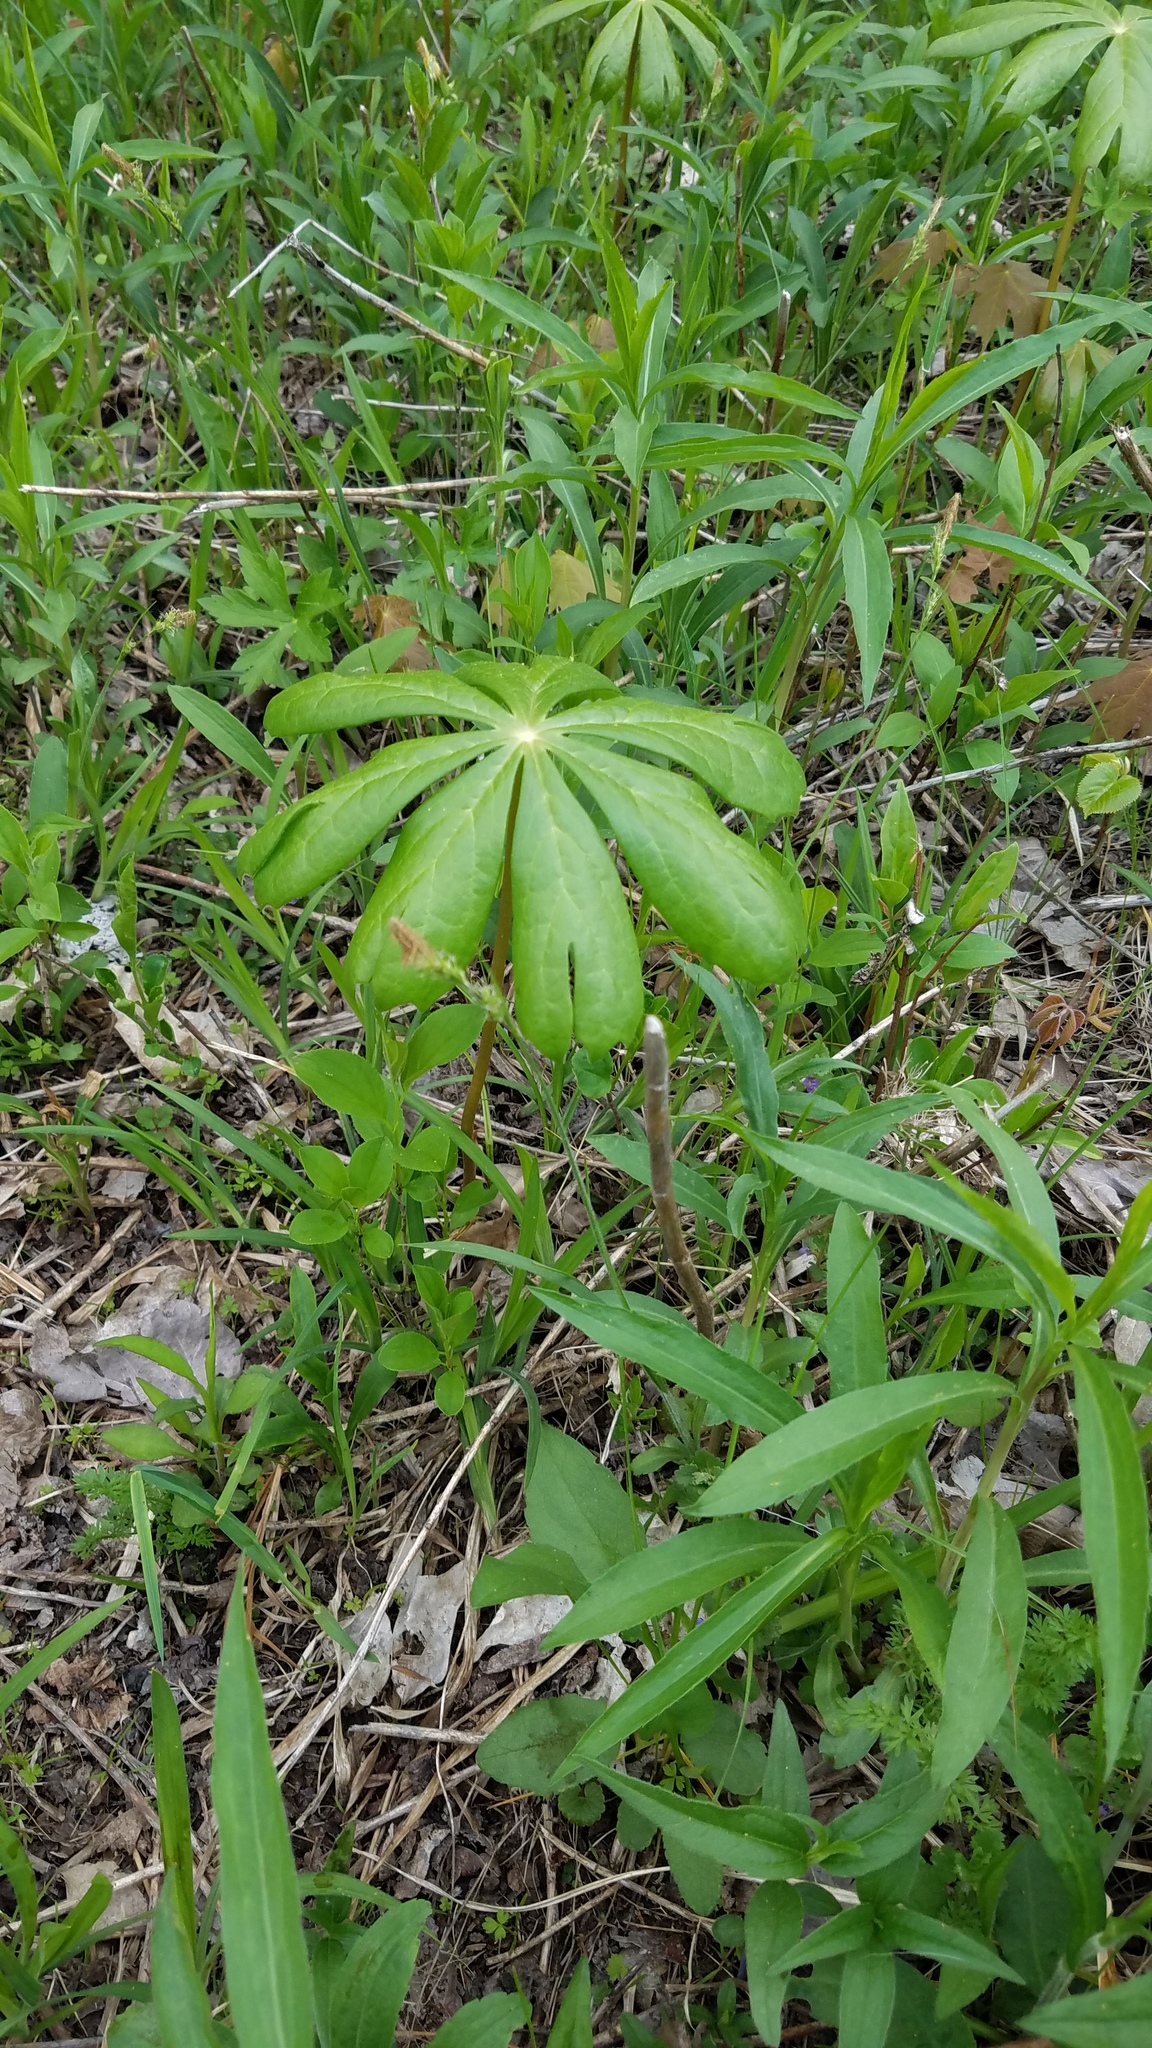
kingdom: Plantae
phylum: Tracheophyta
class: Magnoliopsida
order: Ranunculales
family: Berberidaceae
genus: Podophyllum
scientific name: Podophyllum peltatum
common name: Wild mandrake
